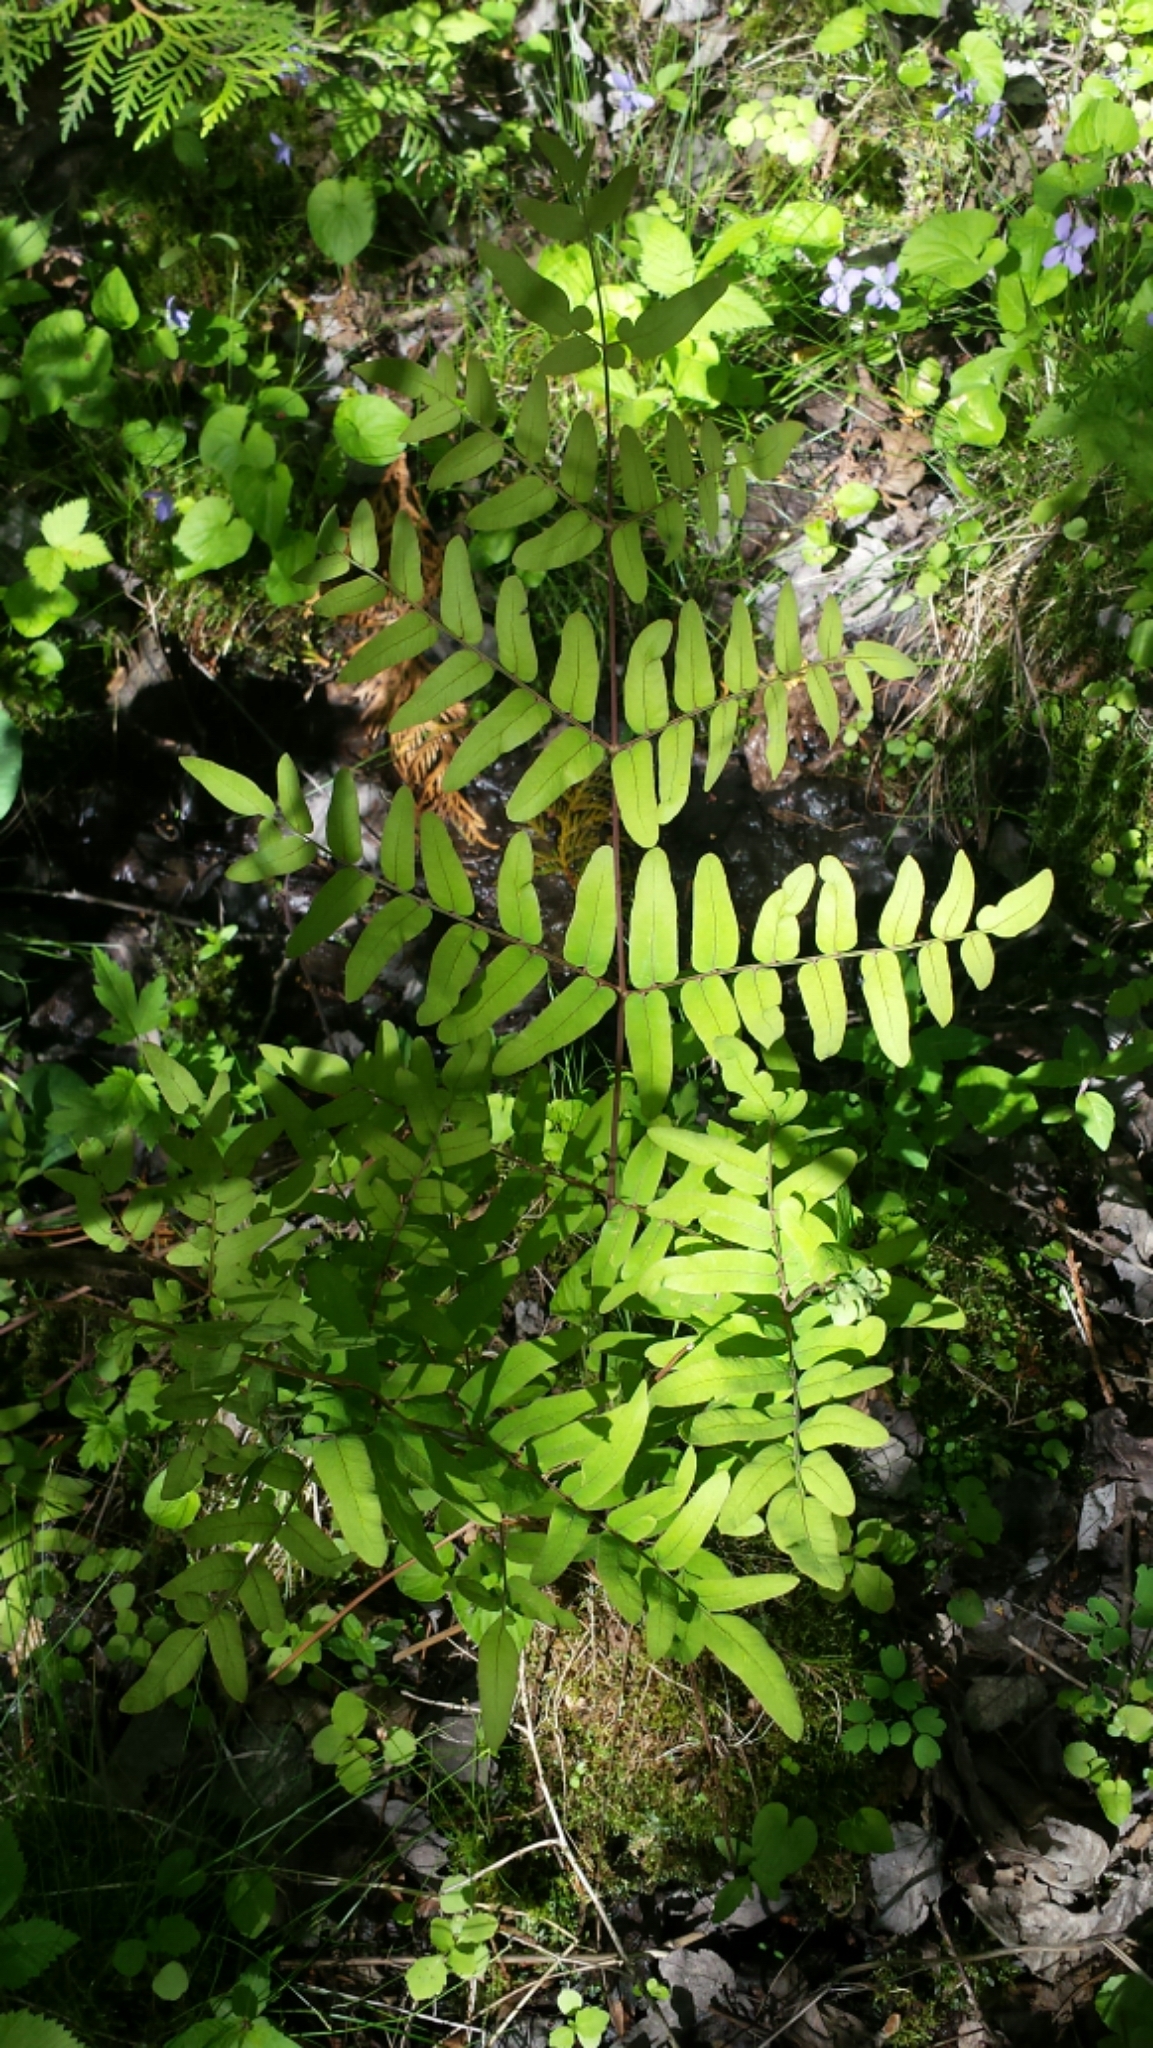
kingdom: Plantae
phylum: Tracheophyta
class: Polypodiopsida
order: Osmundales
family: Osmundaceae
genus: Osmunda
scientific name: Osmunda spectabilis
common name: American royal fern
